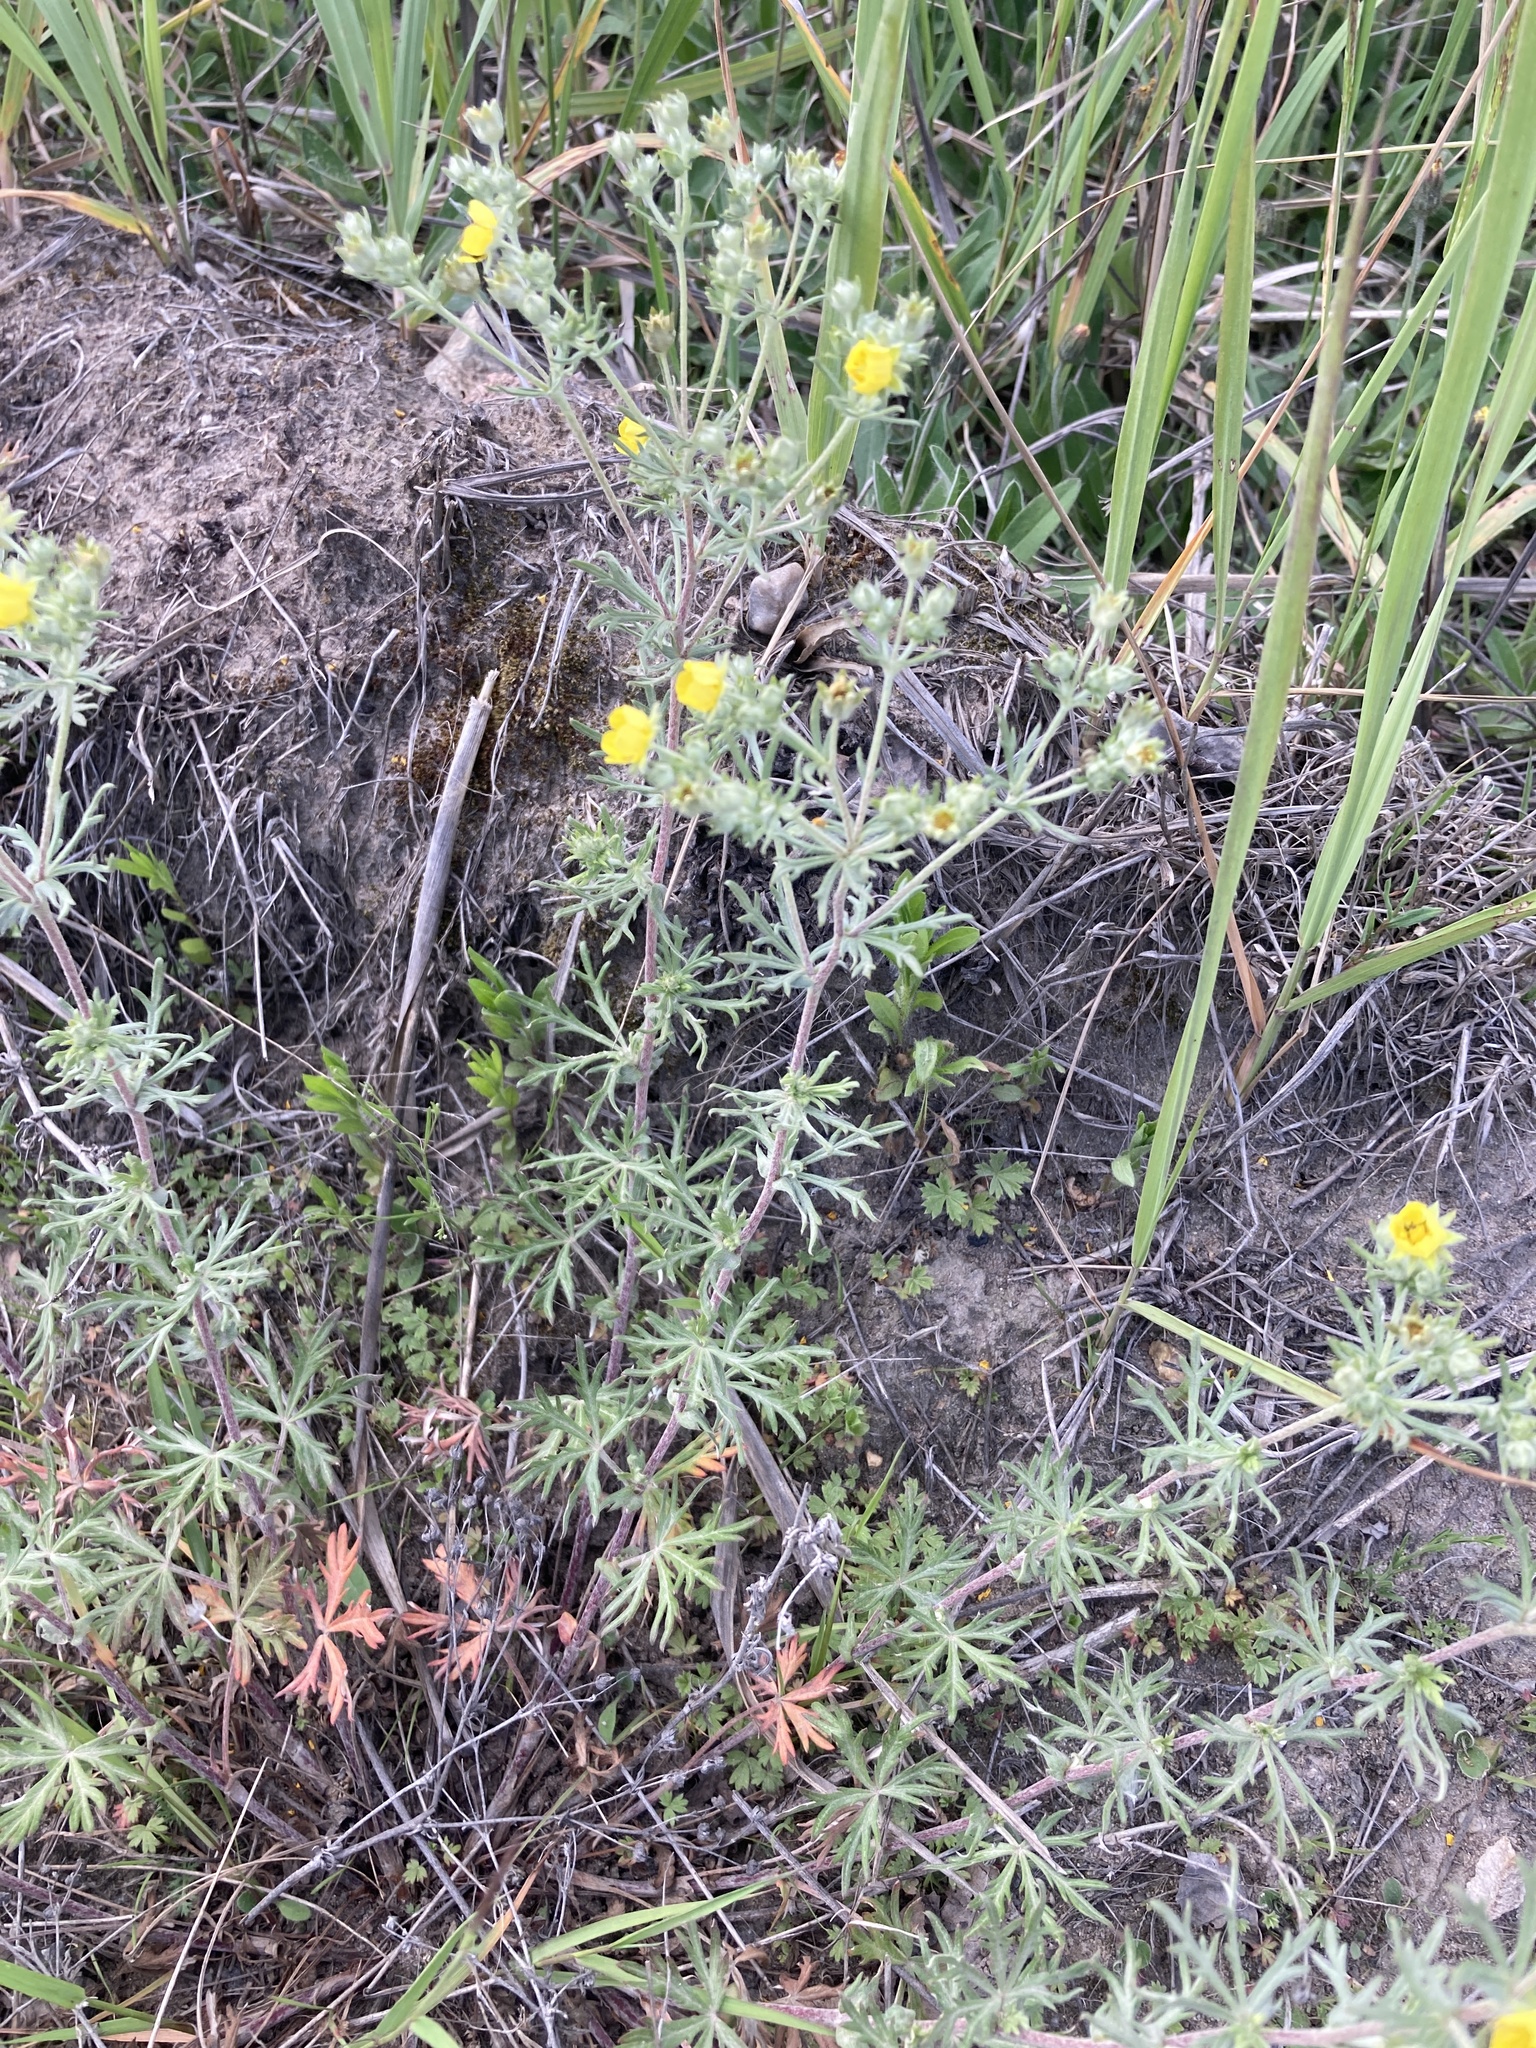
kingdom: Plantae
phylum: Tracheophyta
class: Magnoliopsida
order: Rosales
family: Rosaceae
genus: Potentilla
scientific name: Potentilla argentea
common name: Hoary cinquefoil
